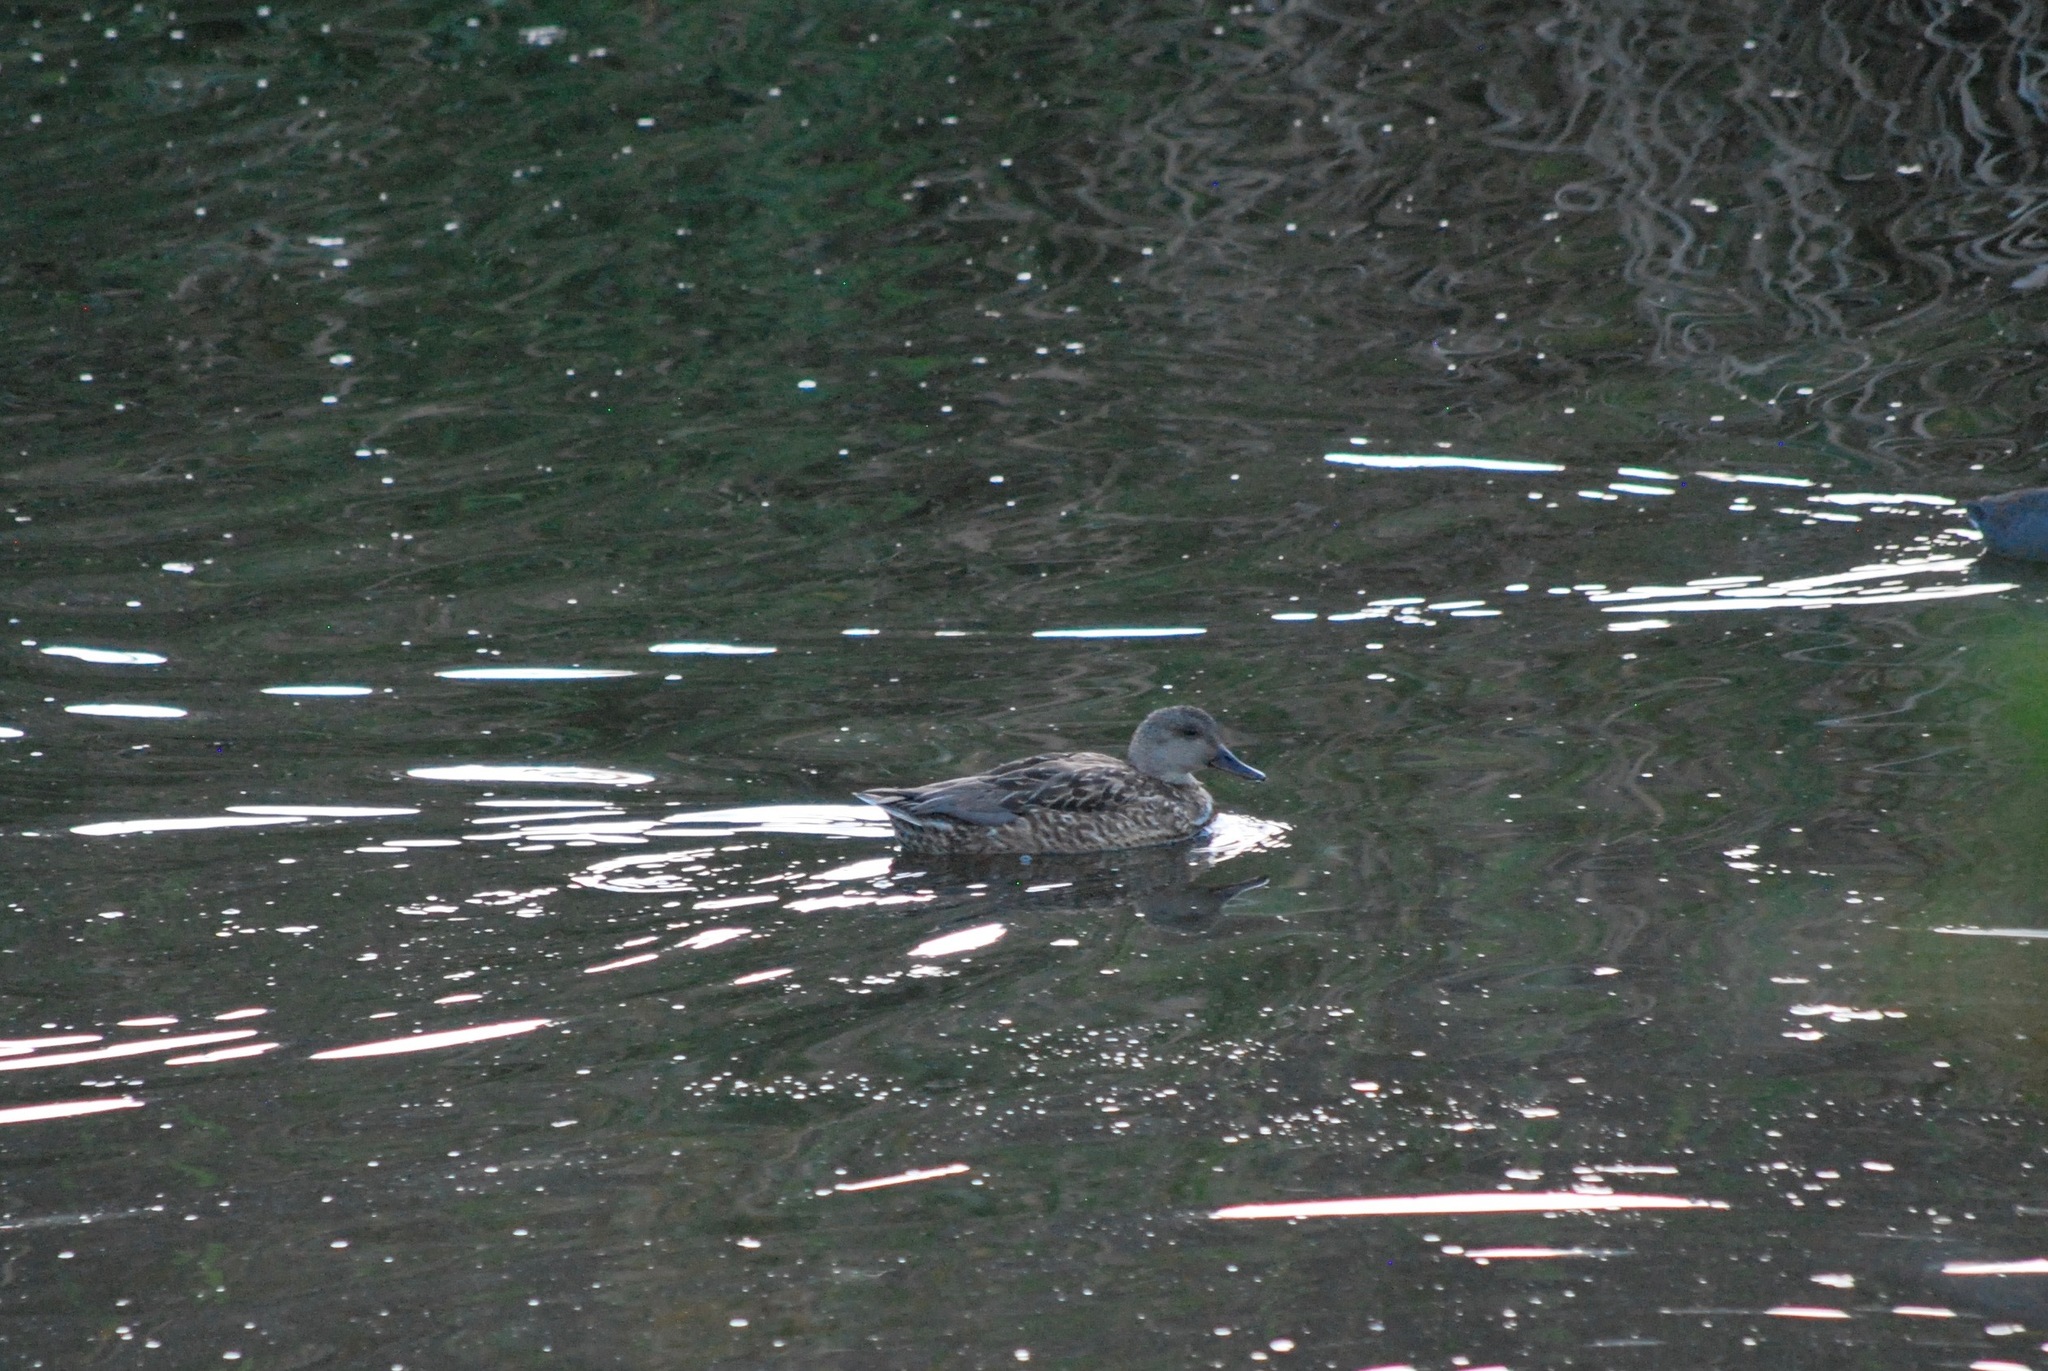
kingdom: Animalia
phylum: Chordata
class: Aves
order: Anseriformes
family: Anatidae
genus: Mareca
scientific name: Mareca strepera
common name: Gadwall
